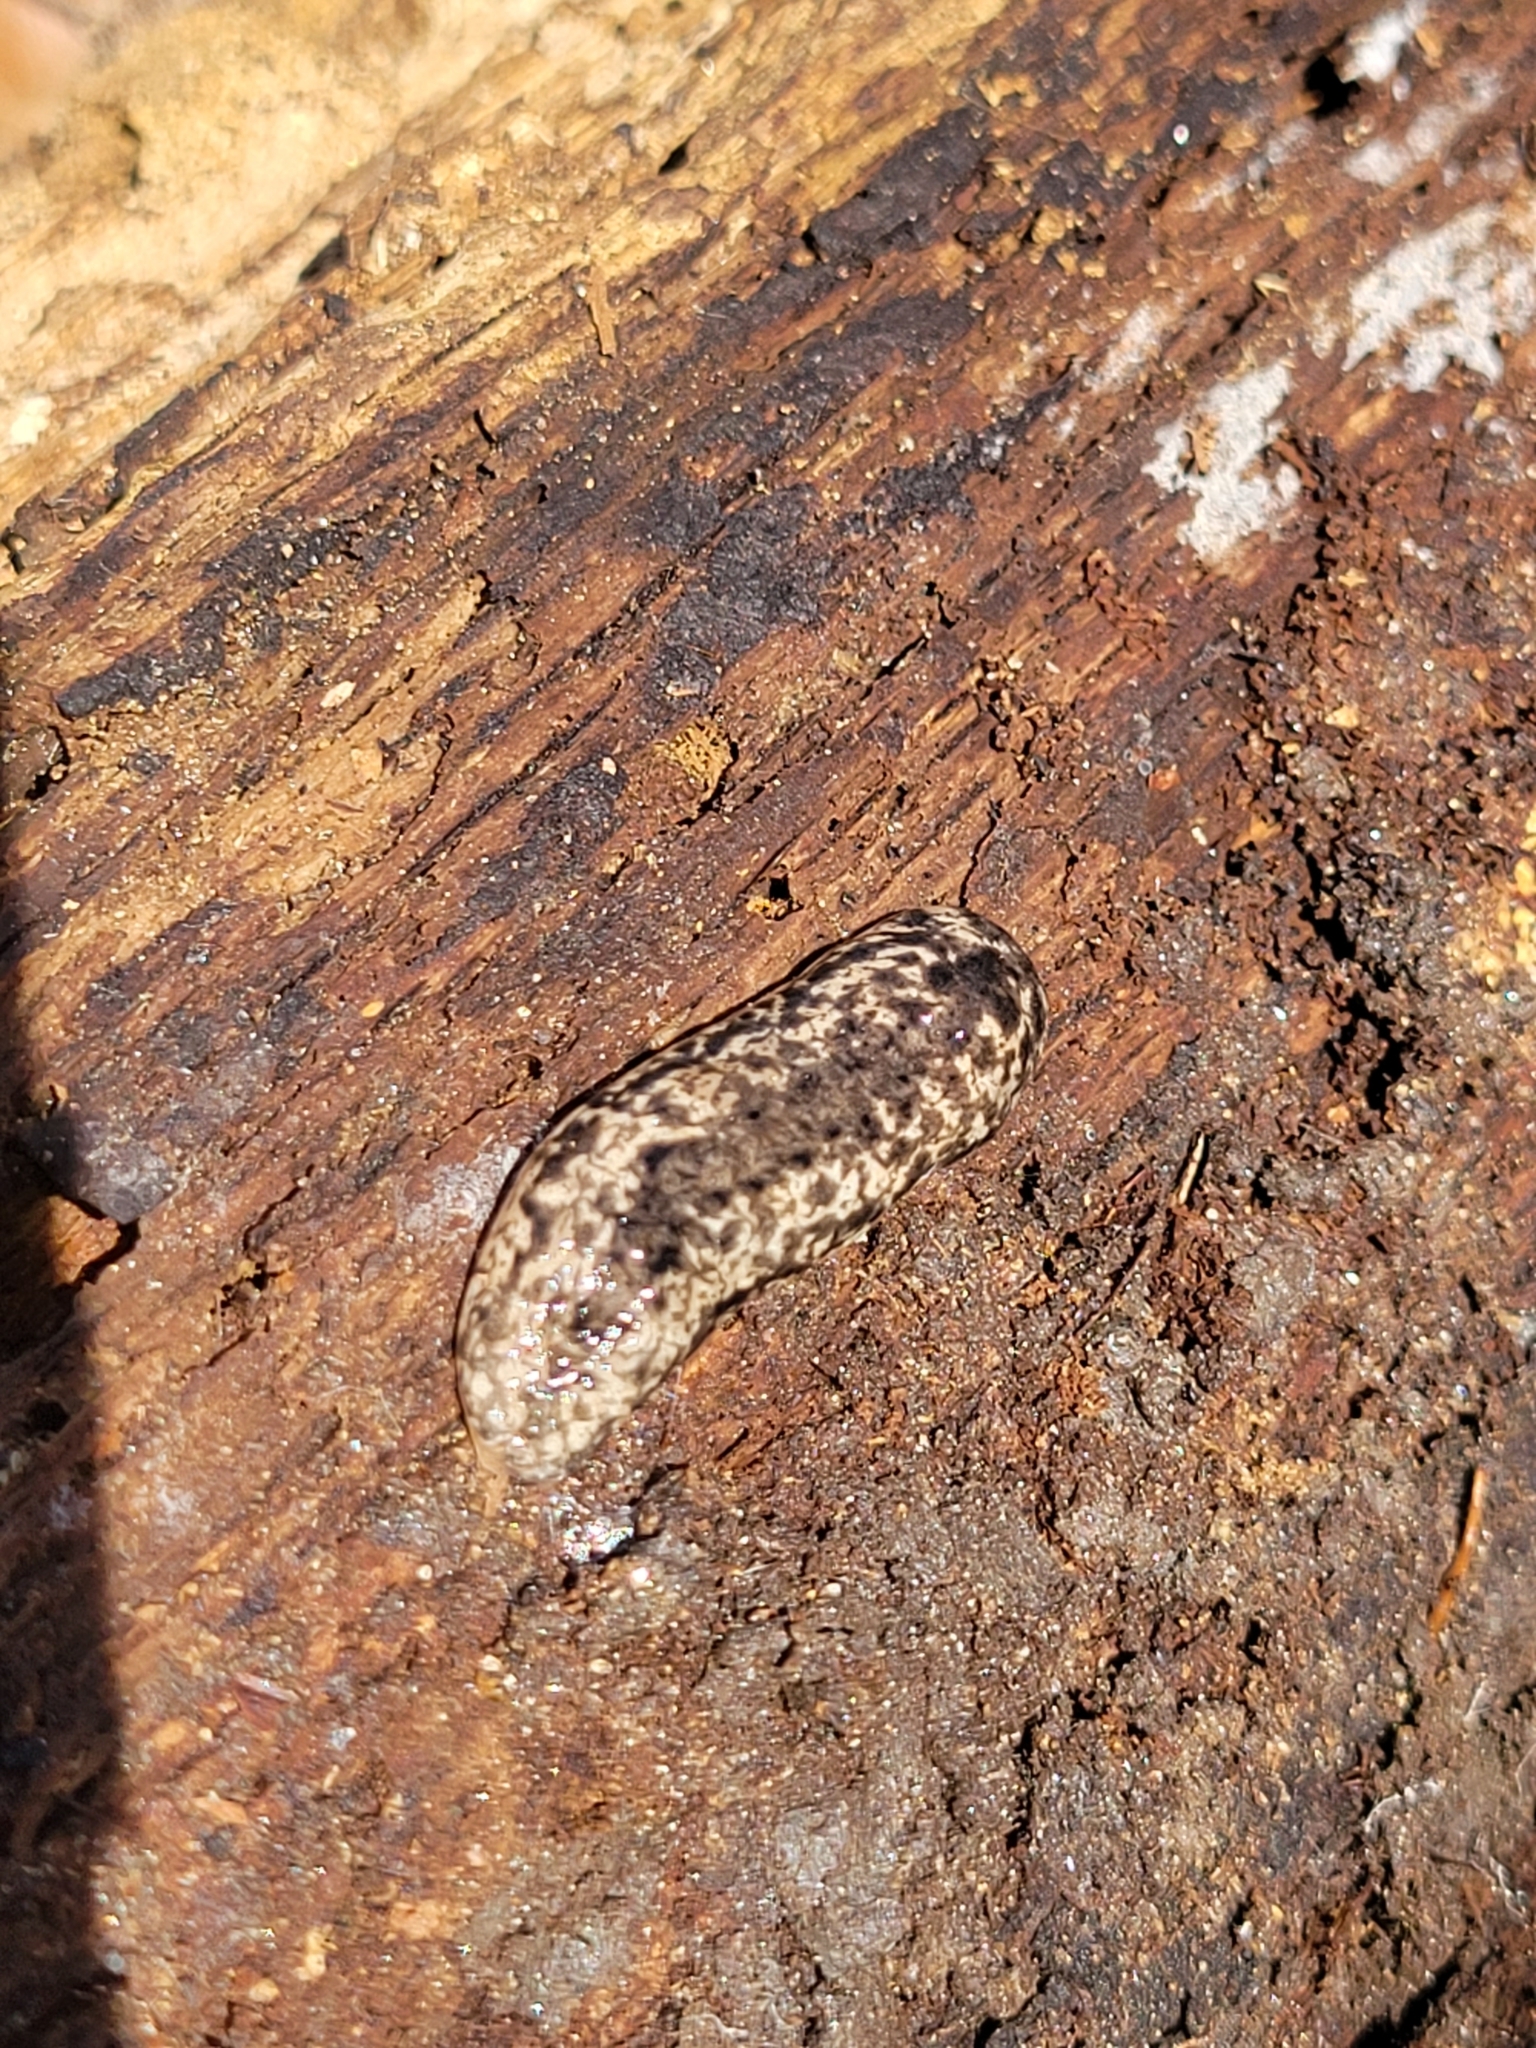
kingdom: Animalia
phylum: Mollusca
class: Gastropoda
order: Stylommatophora
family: Philomycidae
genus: Philomycus
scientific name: Philomycus togatus
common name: Toga mantleslug
